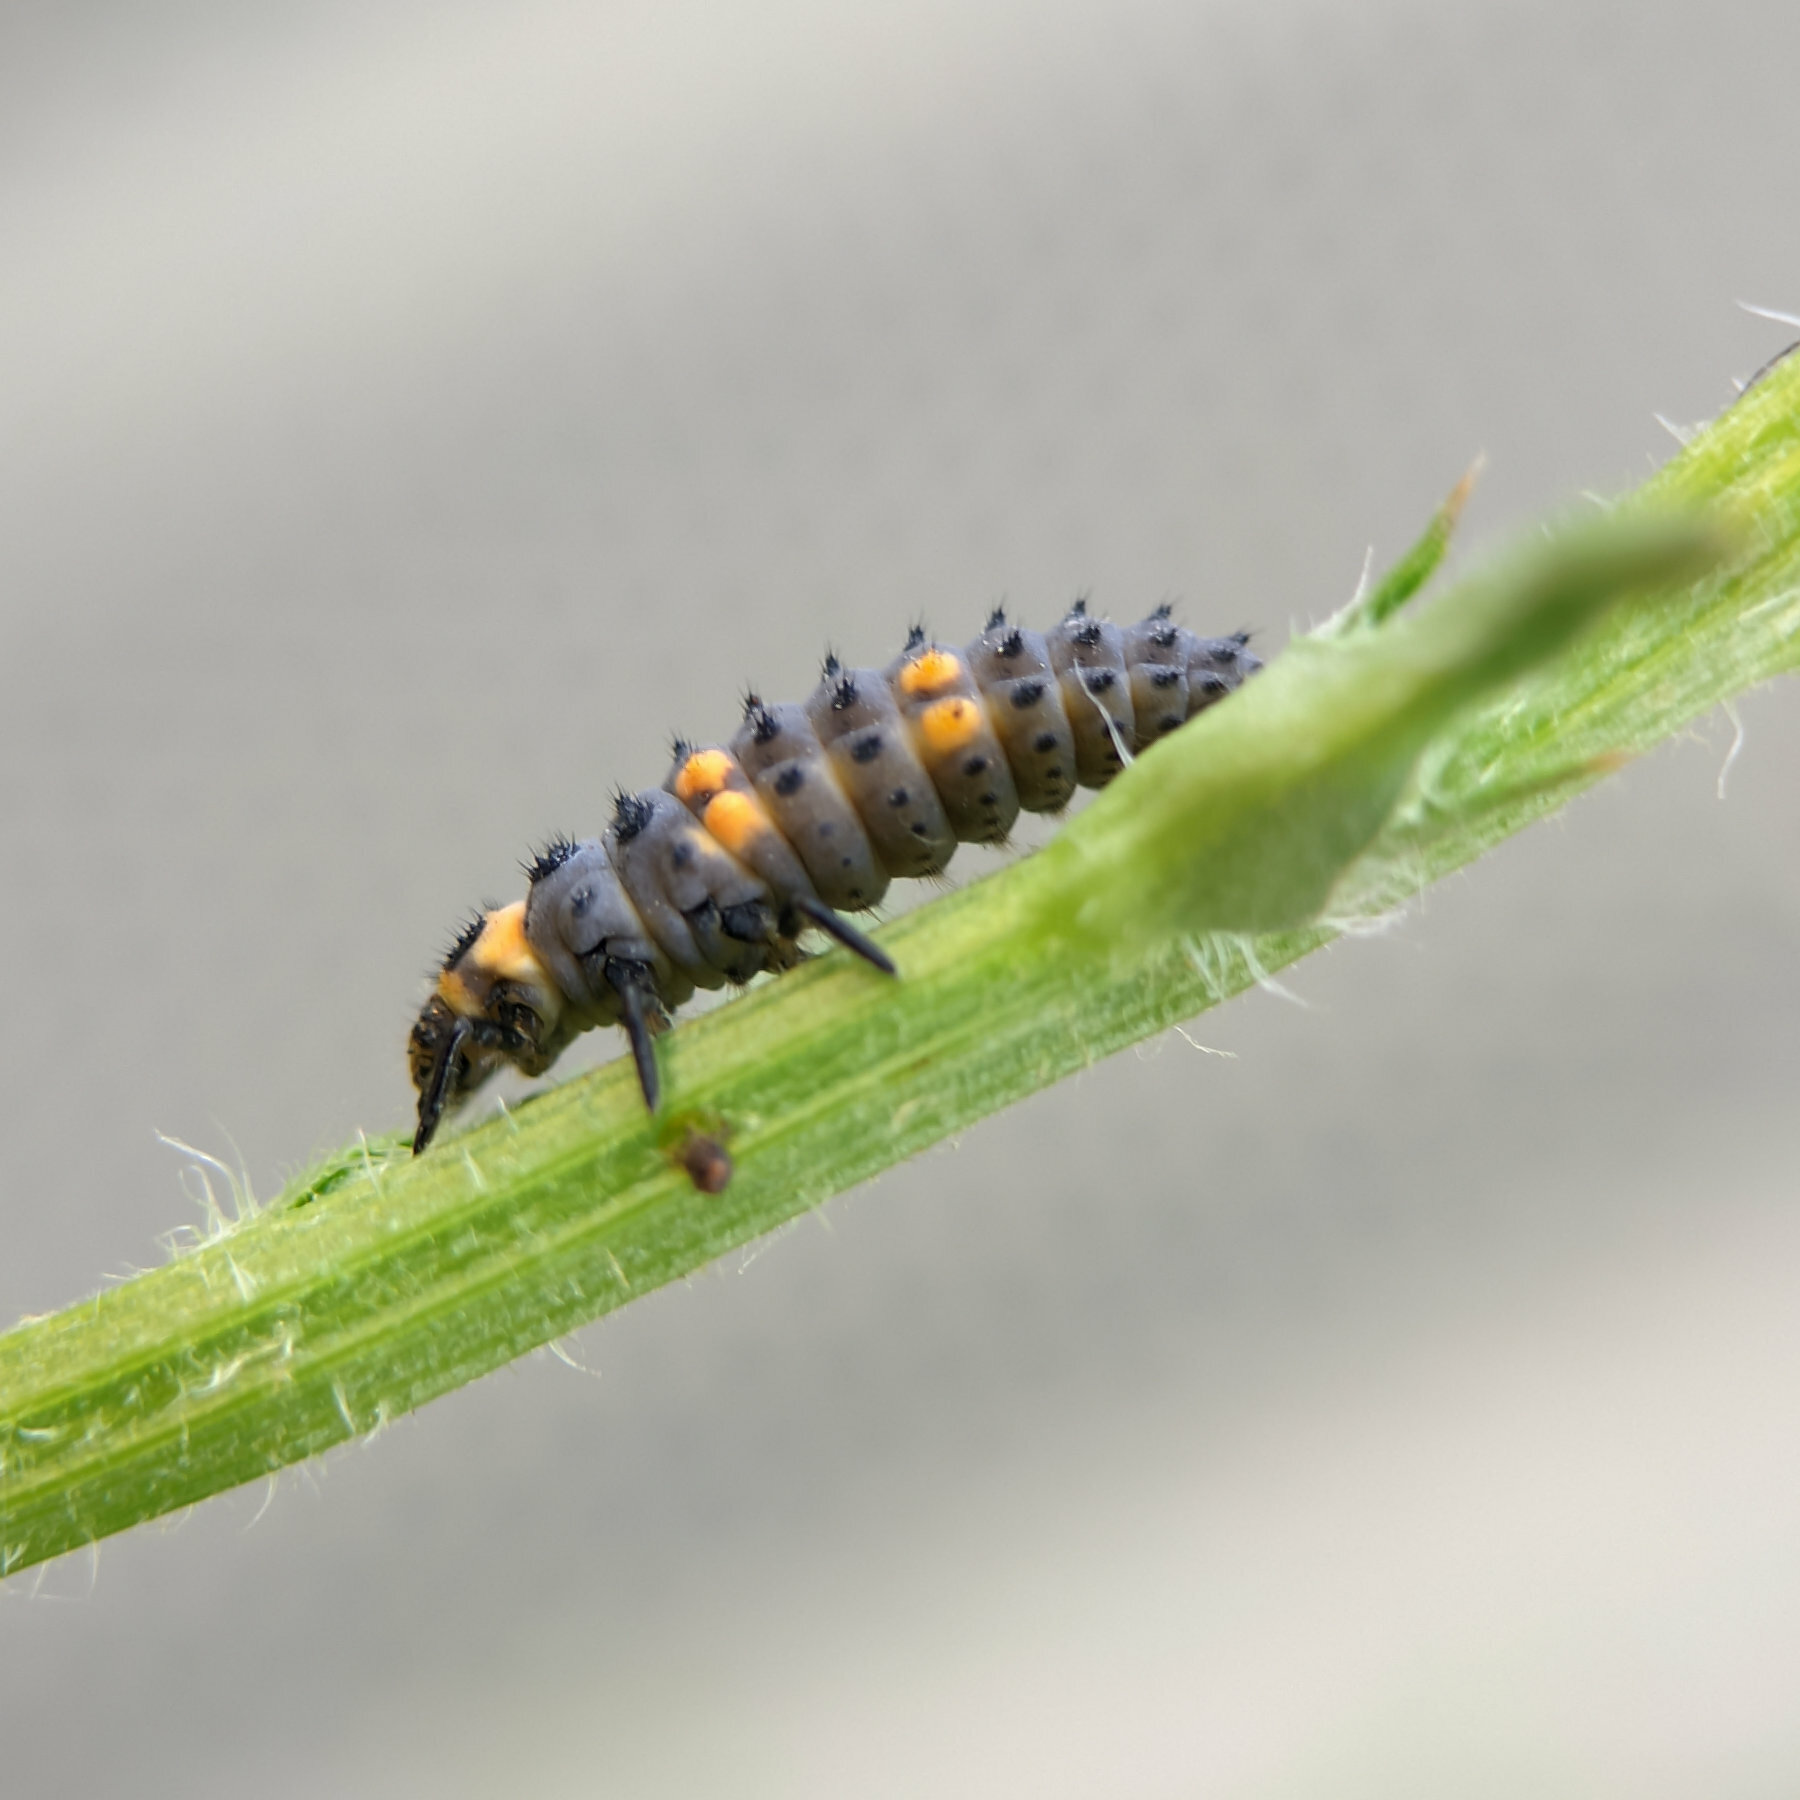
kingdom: Animalia
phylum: Arthropoda
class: Insecta
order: Coleoptera
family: Coccinellidae
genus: Coccinella
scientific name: Coccinella septempunctata
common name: Sevenspotted lady beetle
